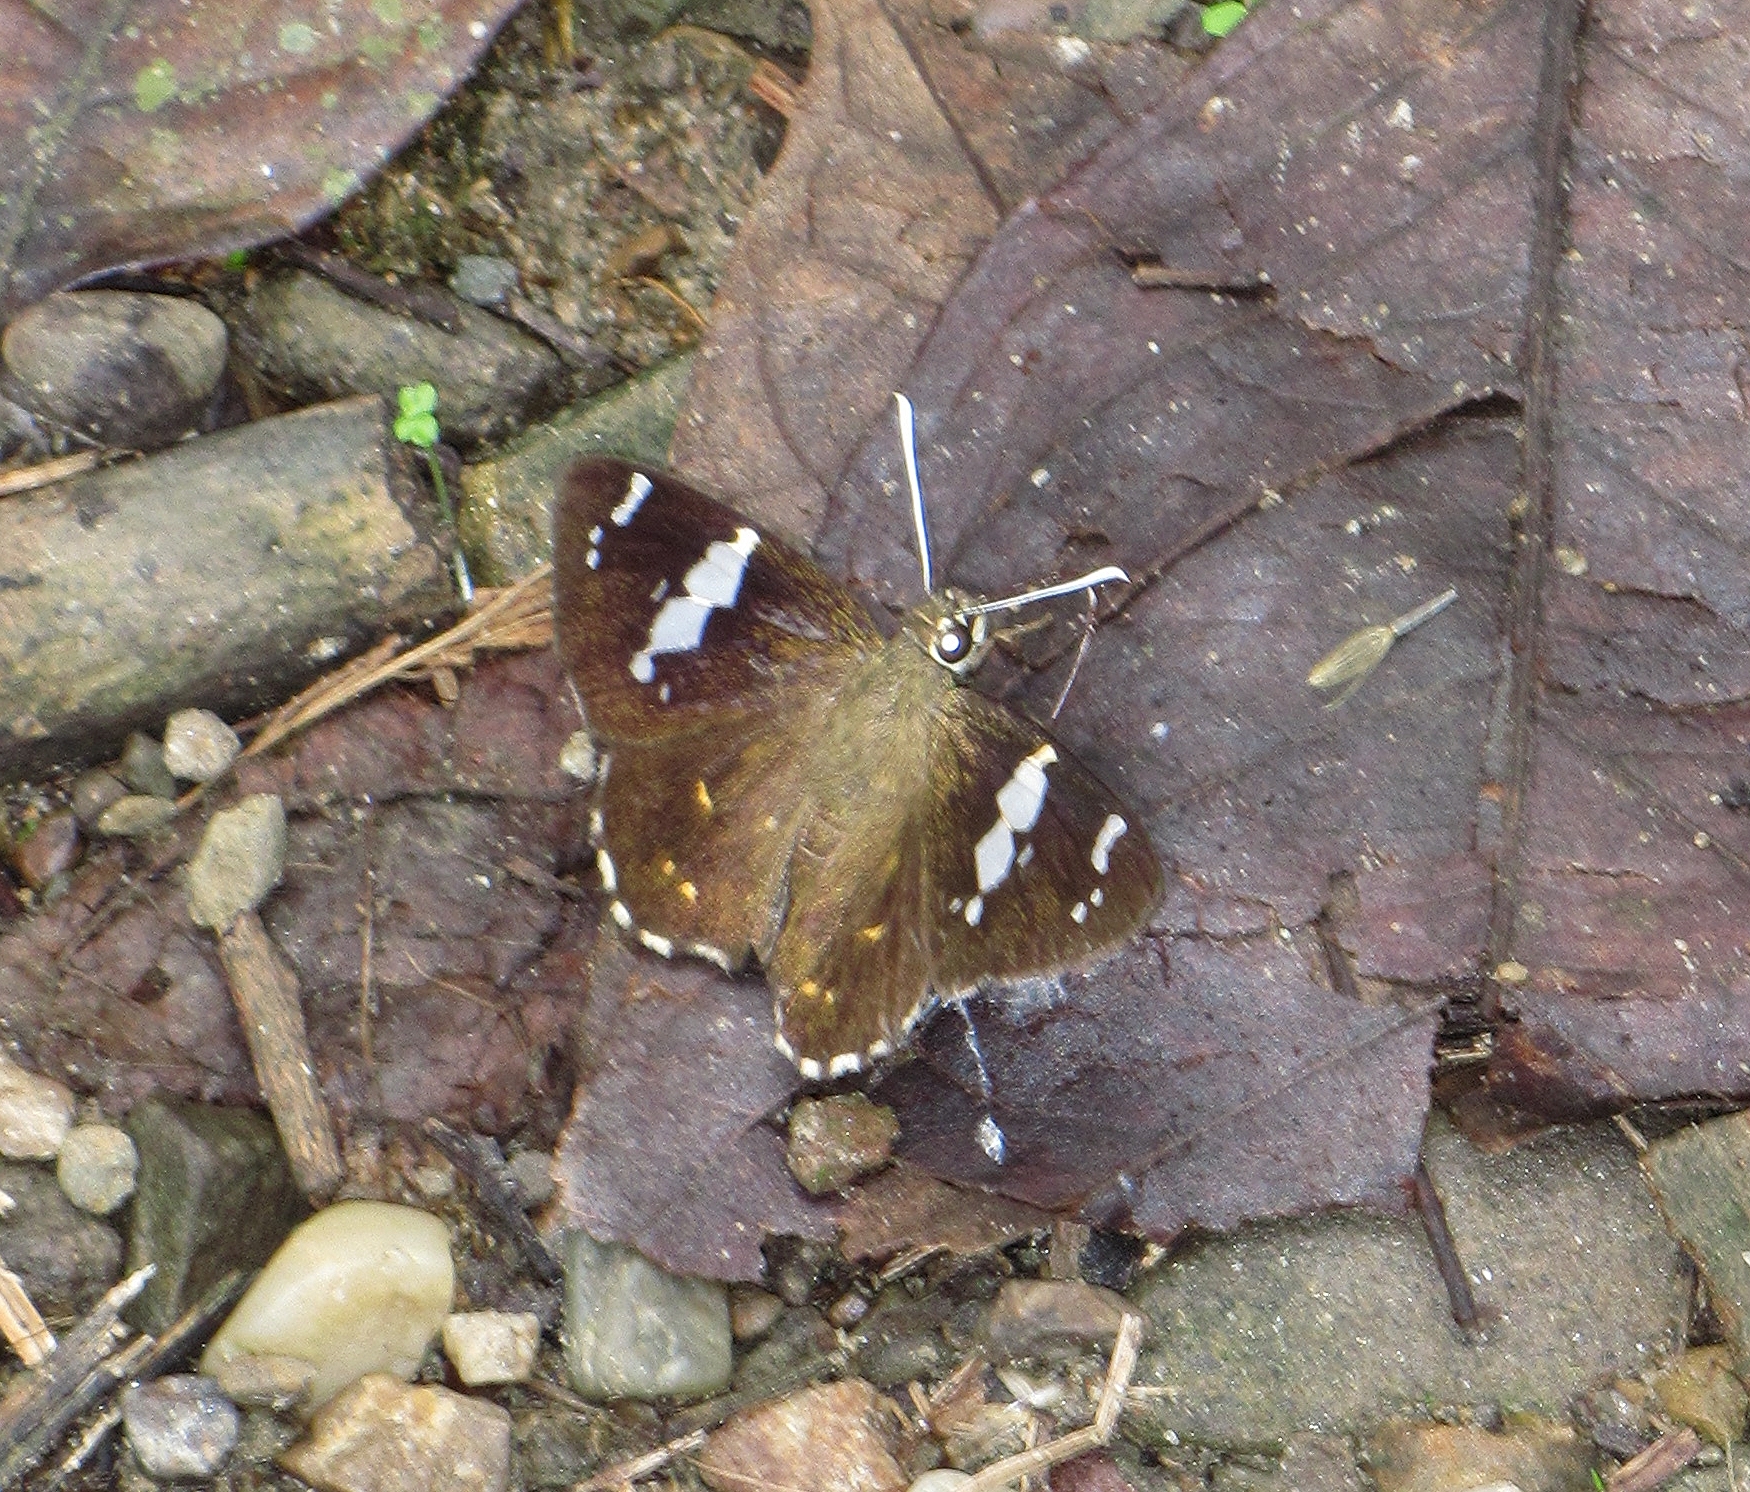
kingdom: Animalia
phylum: Arthropoda
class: Insecta
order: Lepidoptera
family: Hesperiidae
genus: Celaenorrhinus
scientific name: Celaenorrhinus leucocera
